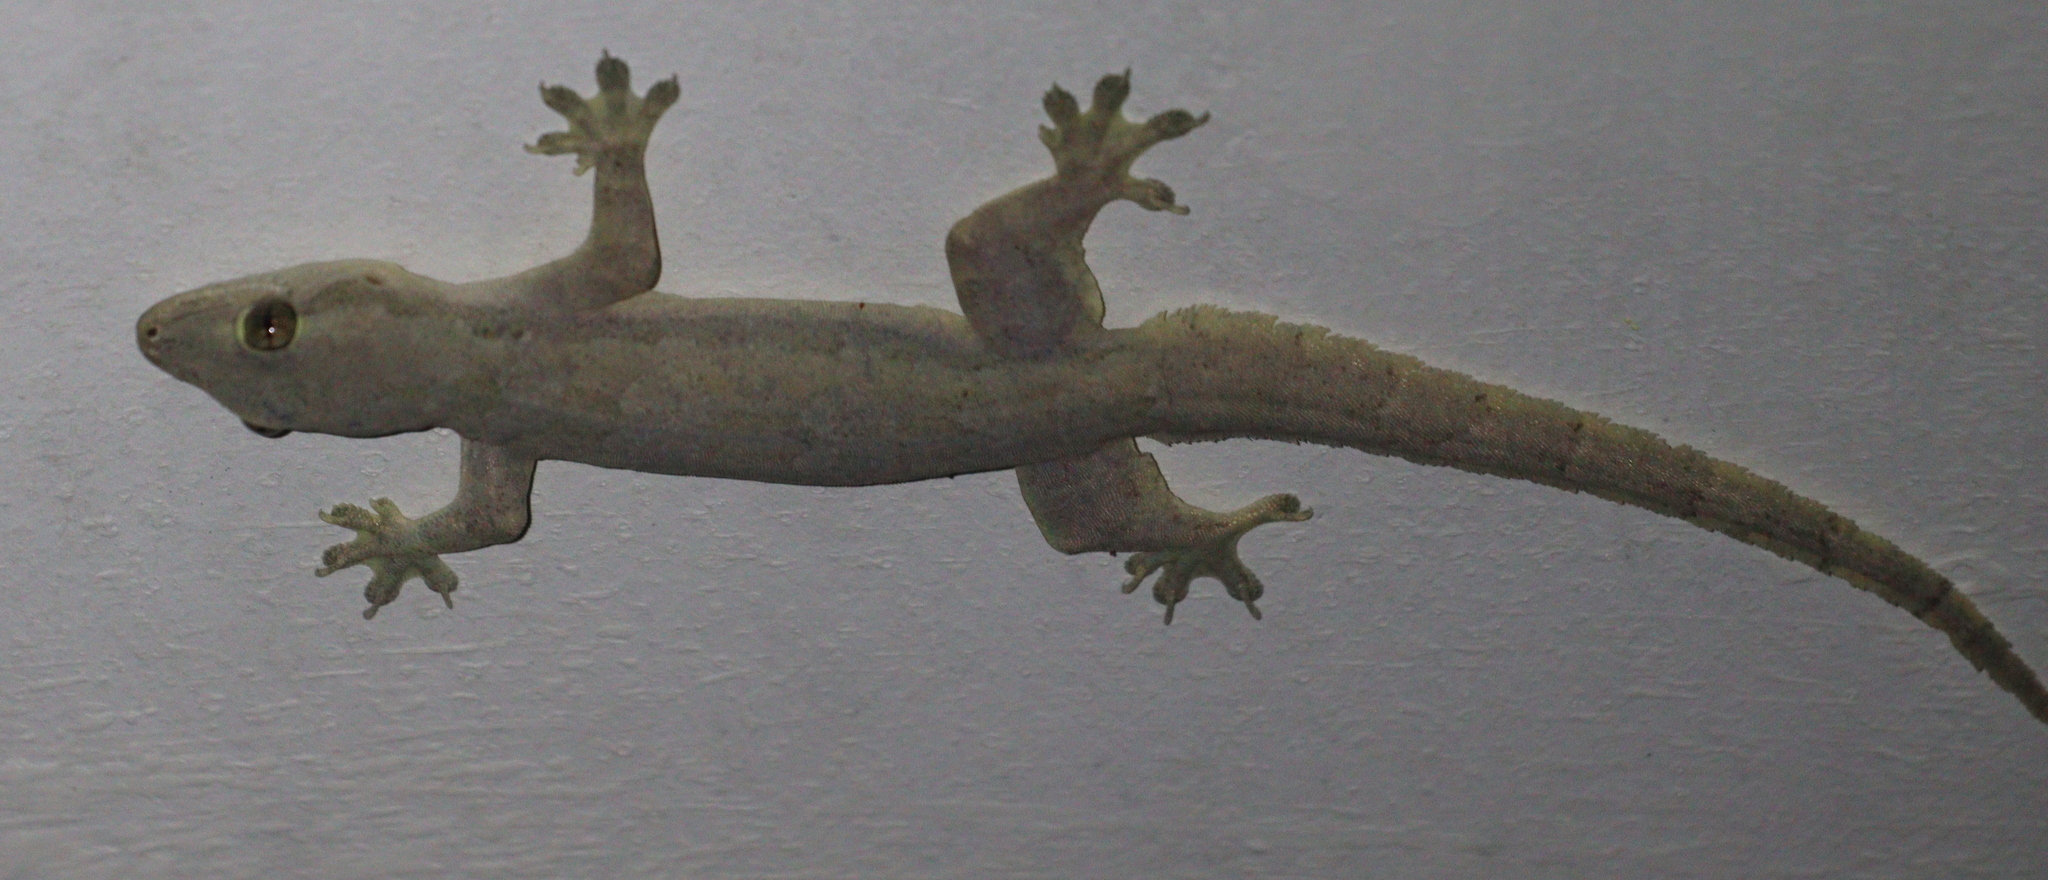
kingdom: Animalia
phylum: Chordata
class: Squamata
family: Gekkonidae
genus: Hemidactylus
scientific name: Hemidactylus platyurus
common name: Flat-tailed house gecko
